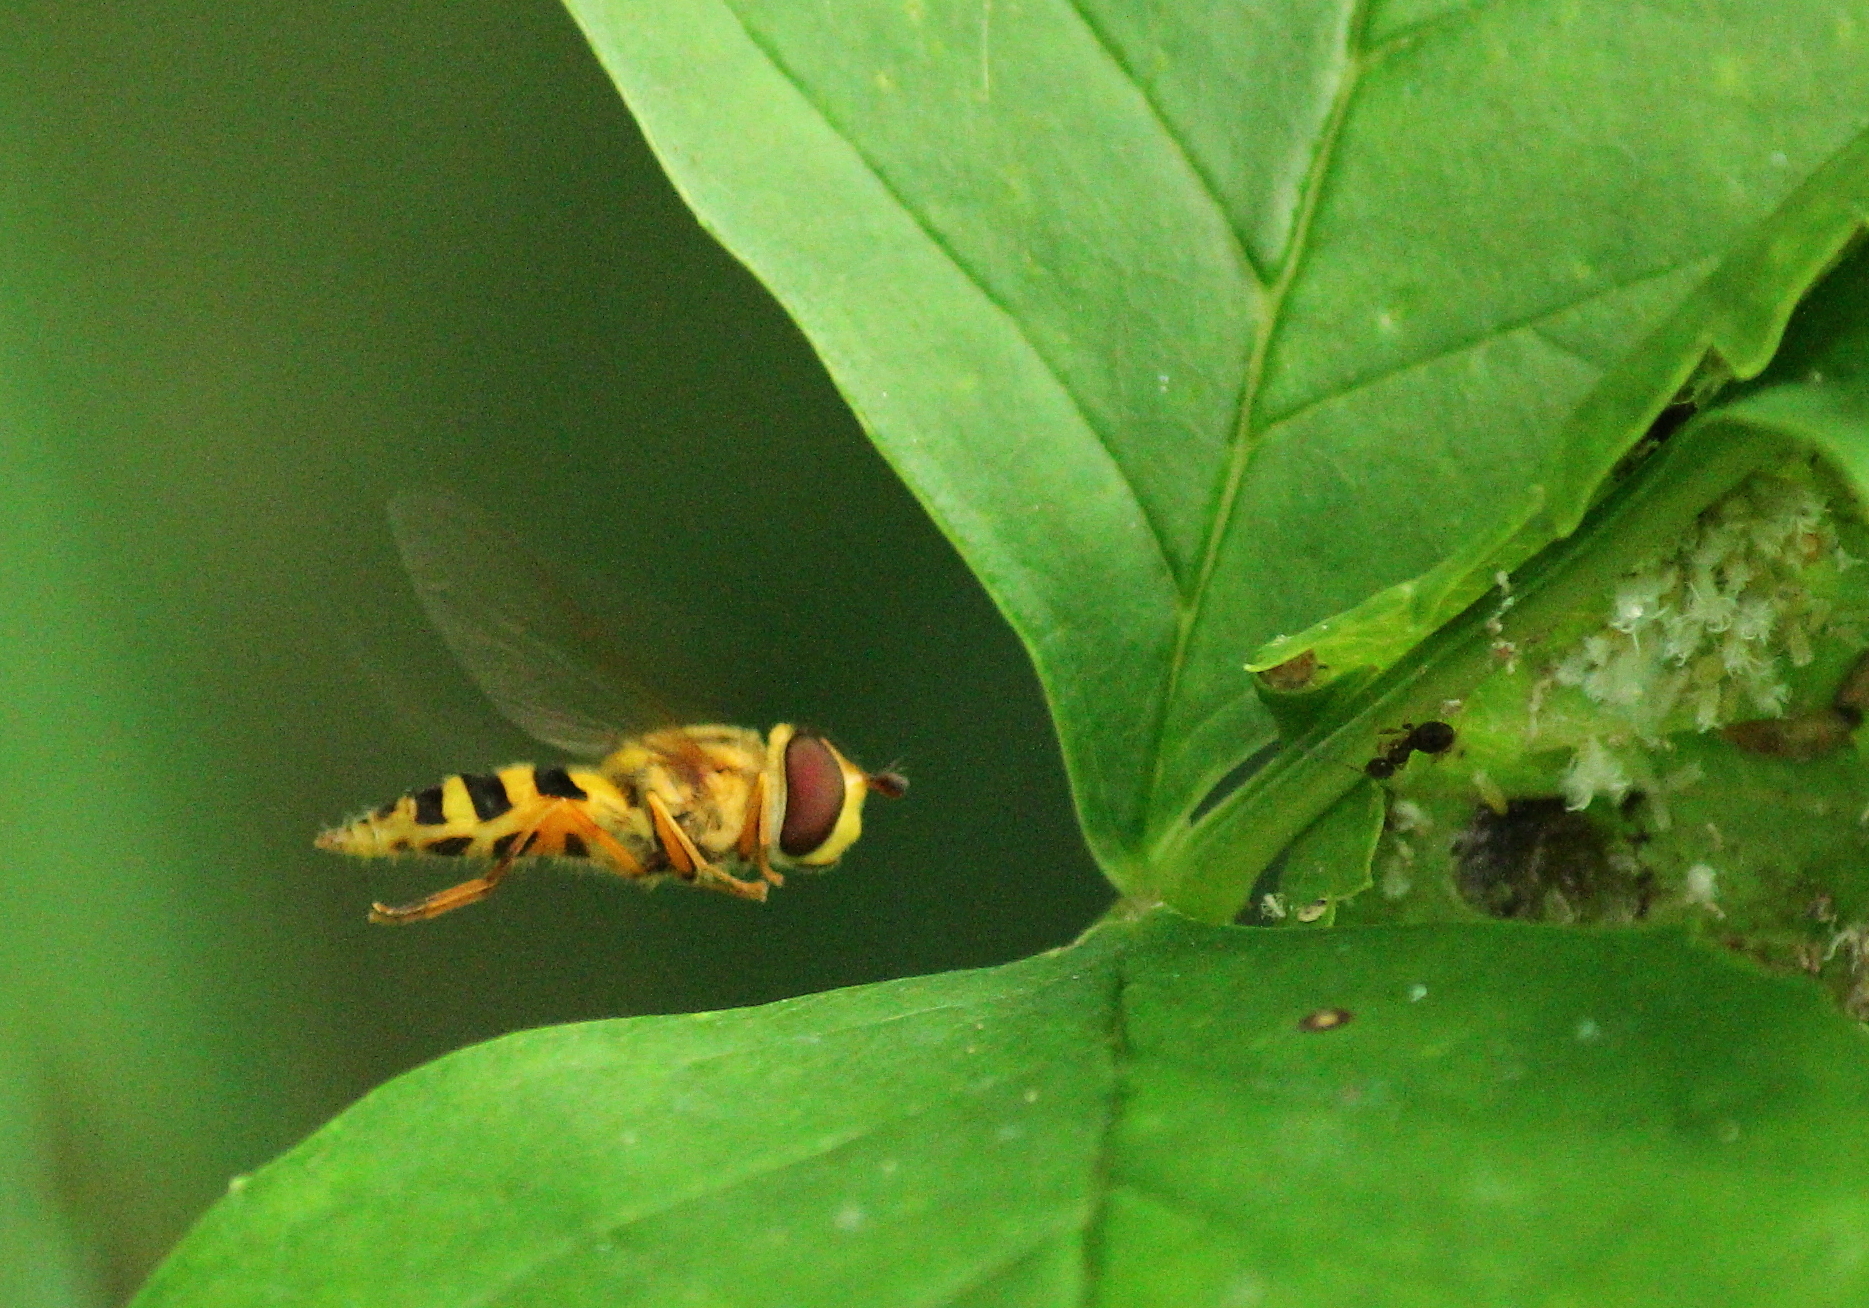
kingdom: Animalia
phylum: Arthropoda
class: Insecta
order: Diptera
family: Syrphidae
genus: Syrphus
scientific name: Syrphus knabi
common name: Eastern flower fly
